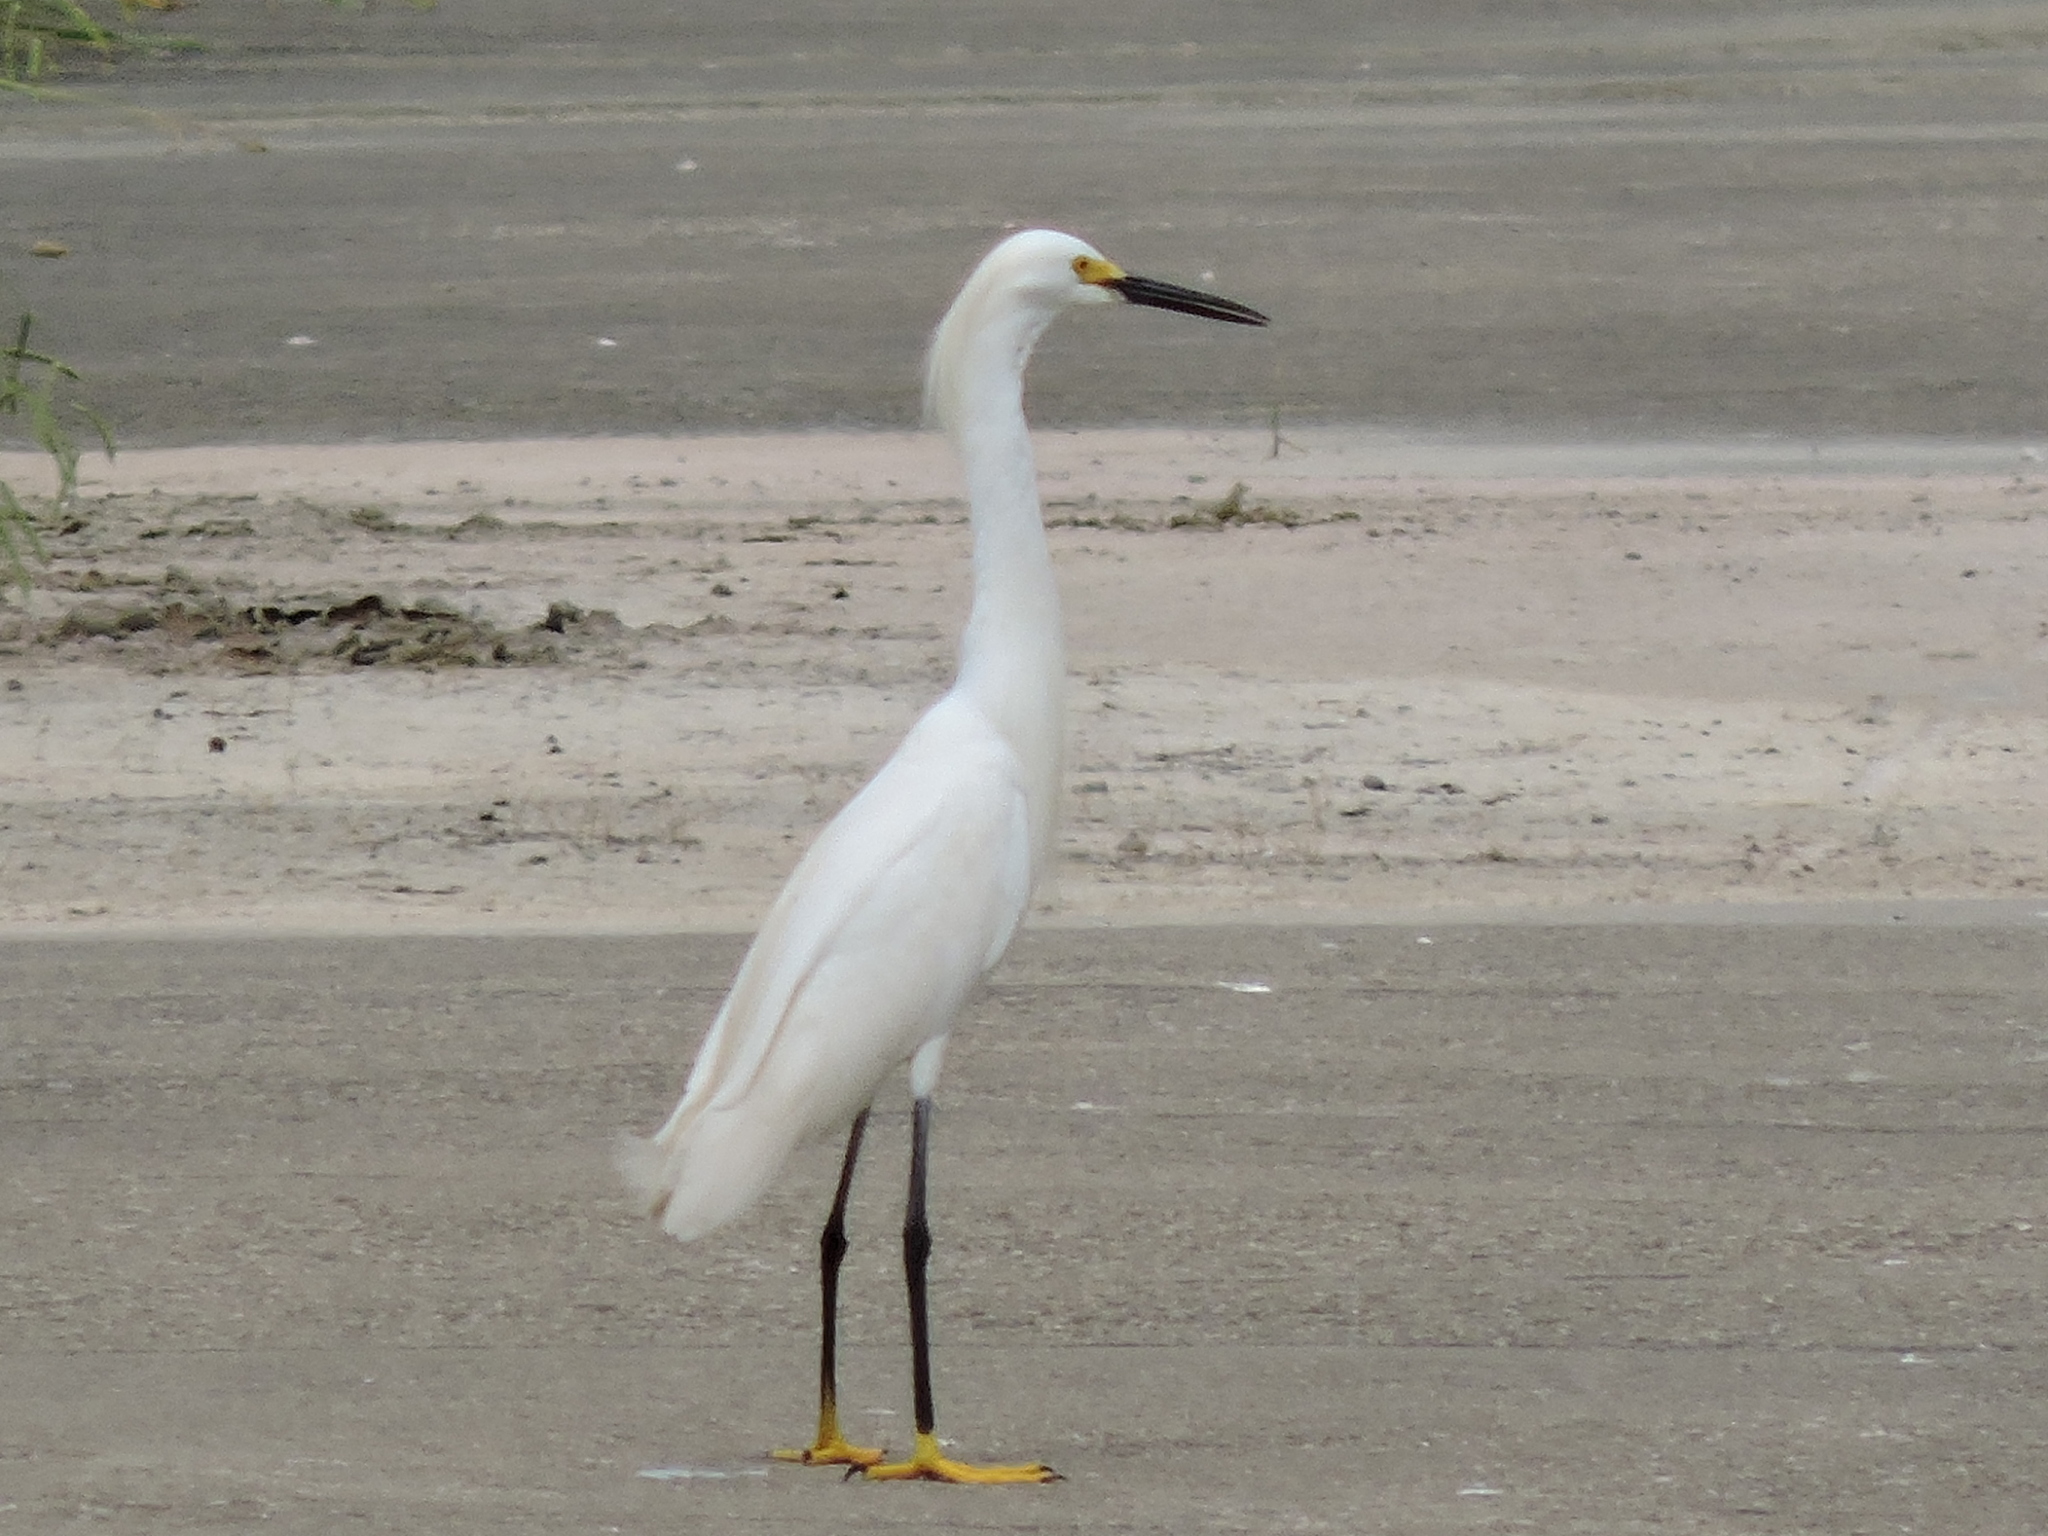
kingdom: Animalia
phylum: Chordata
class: Aves
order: Pelecaniformes
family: Ardeidae
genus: Egretta
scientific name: Egretta thula
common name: Snowy egret
